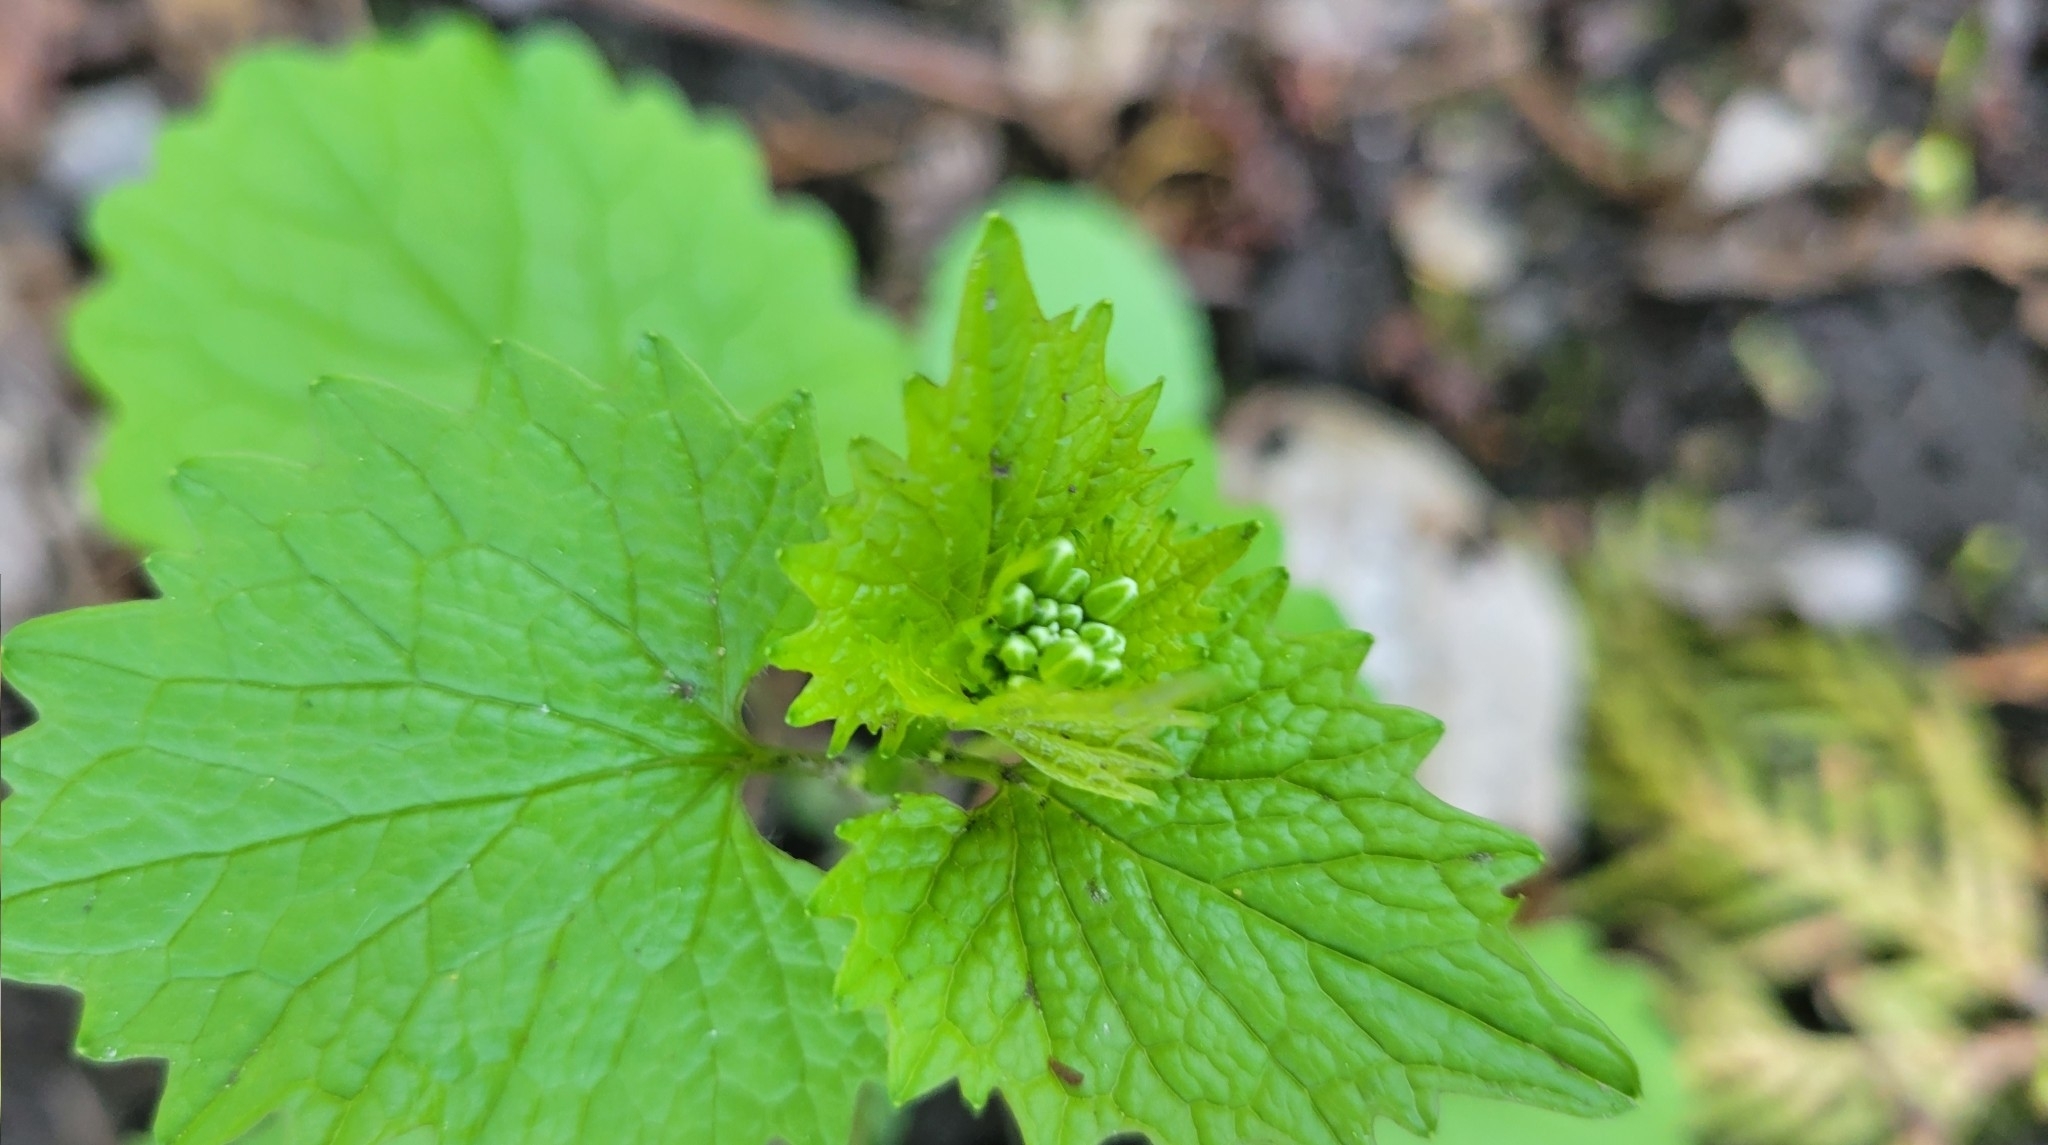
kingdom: Plantae
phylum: Tracheophyta
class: Magnoliopsida
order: Brassicales
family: Brassicaceae
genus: Alliaria
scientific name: Alliaria petiolata
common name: Garlic mustard
